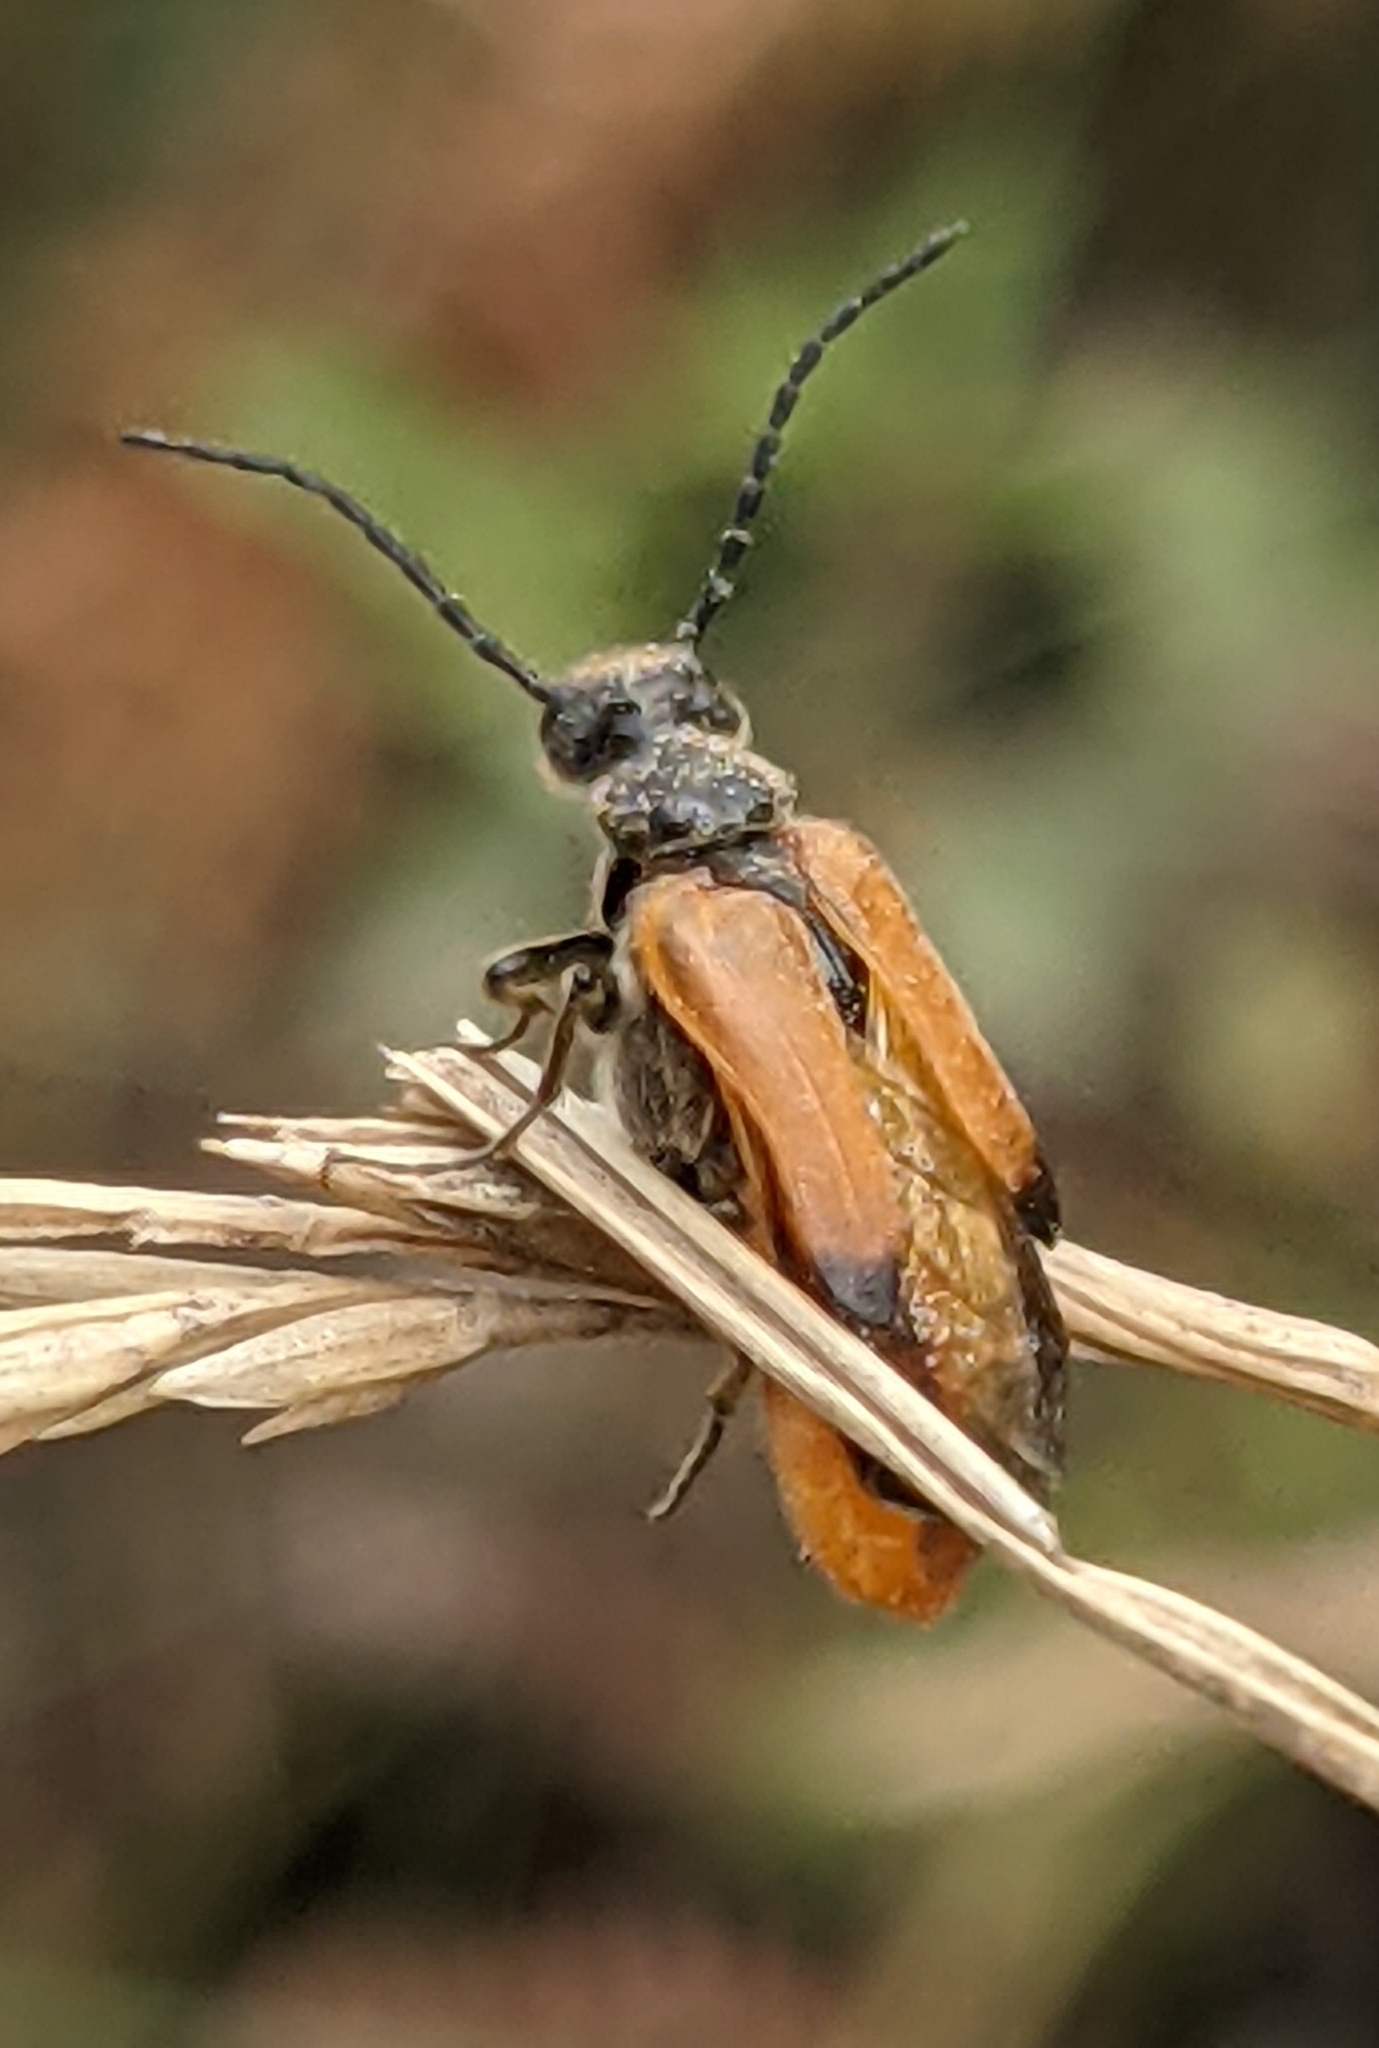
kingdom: Animalia
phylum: Arthropoda
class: Insecta
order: Coleoptera
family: Meloidae
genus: Stenoria
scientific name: Stenoria analis
